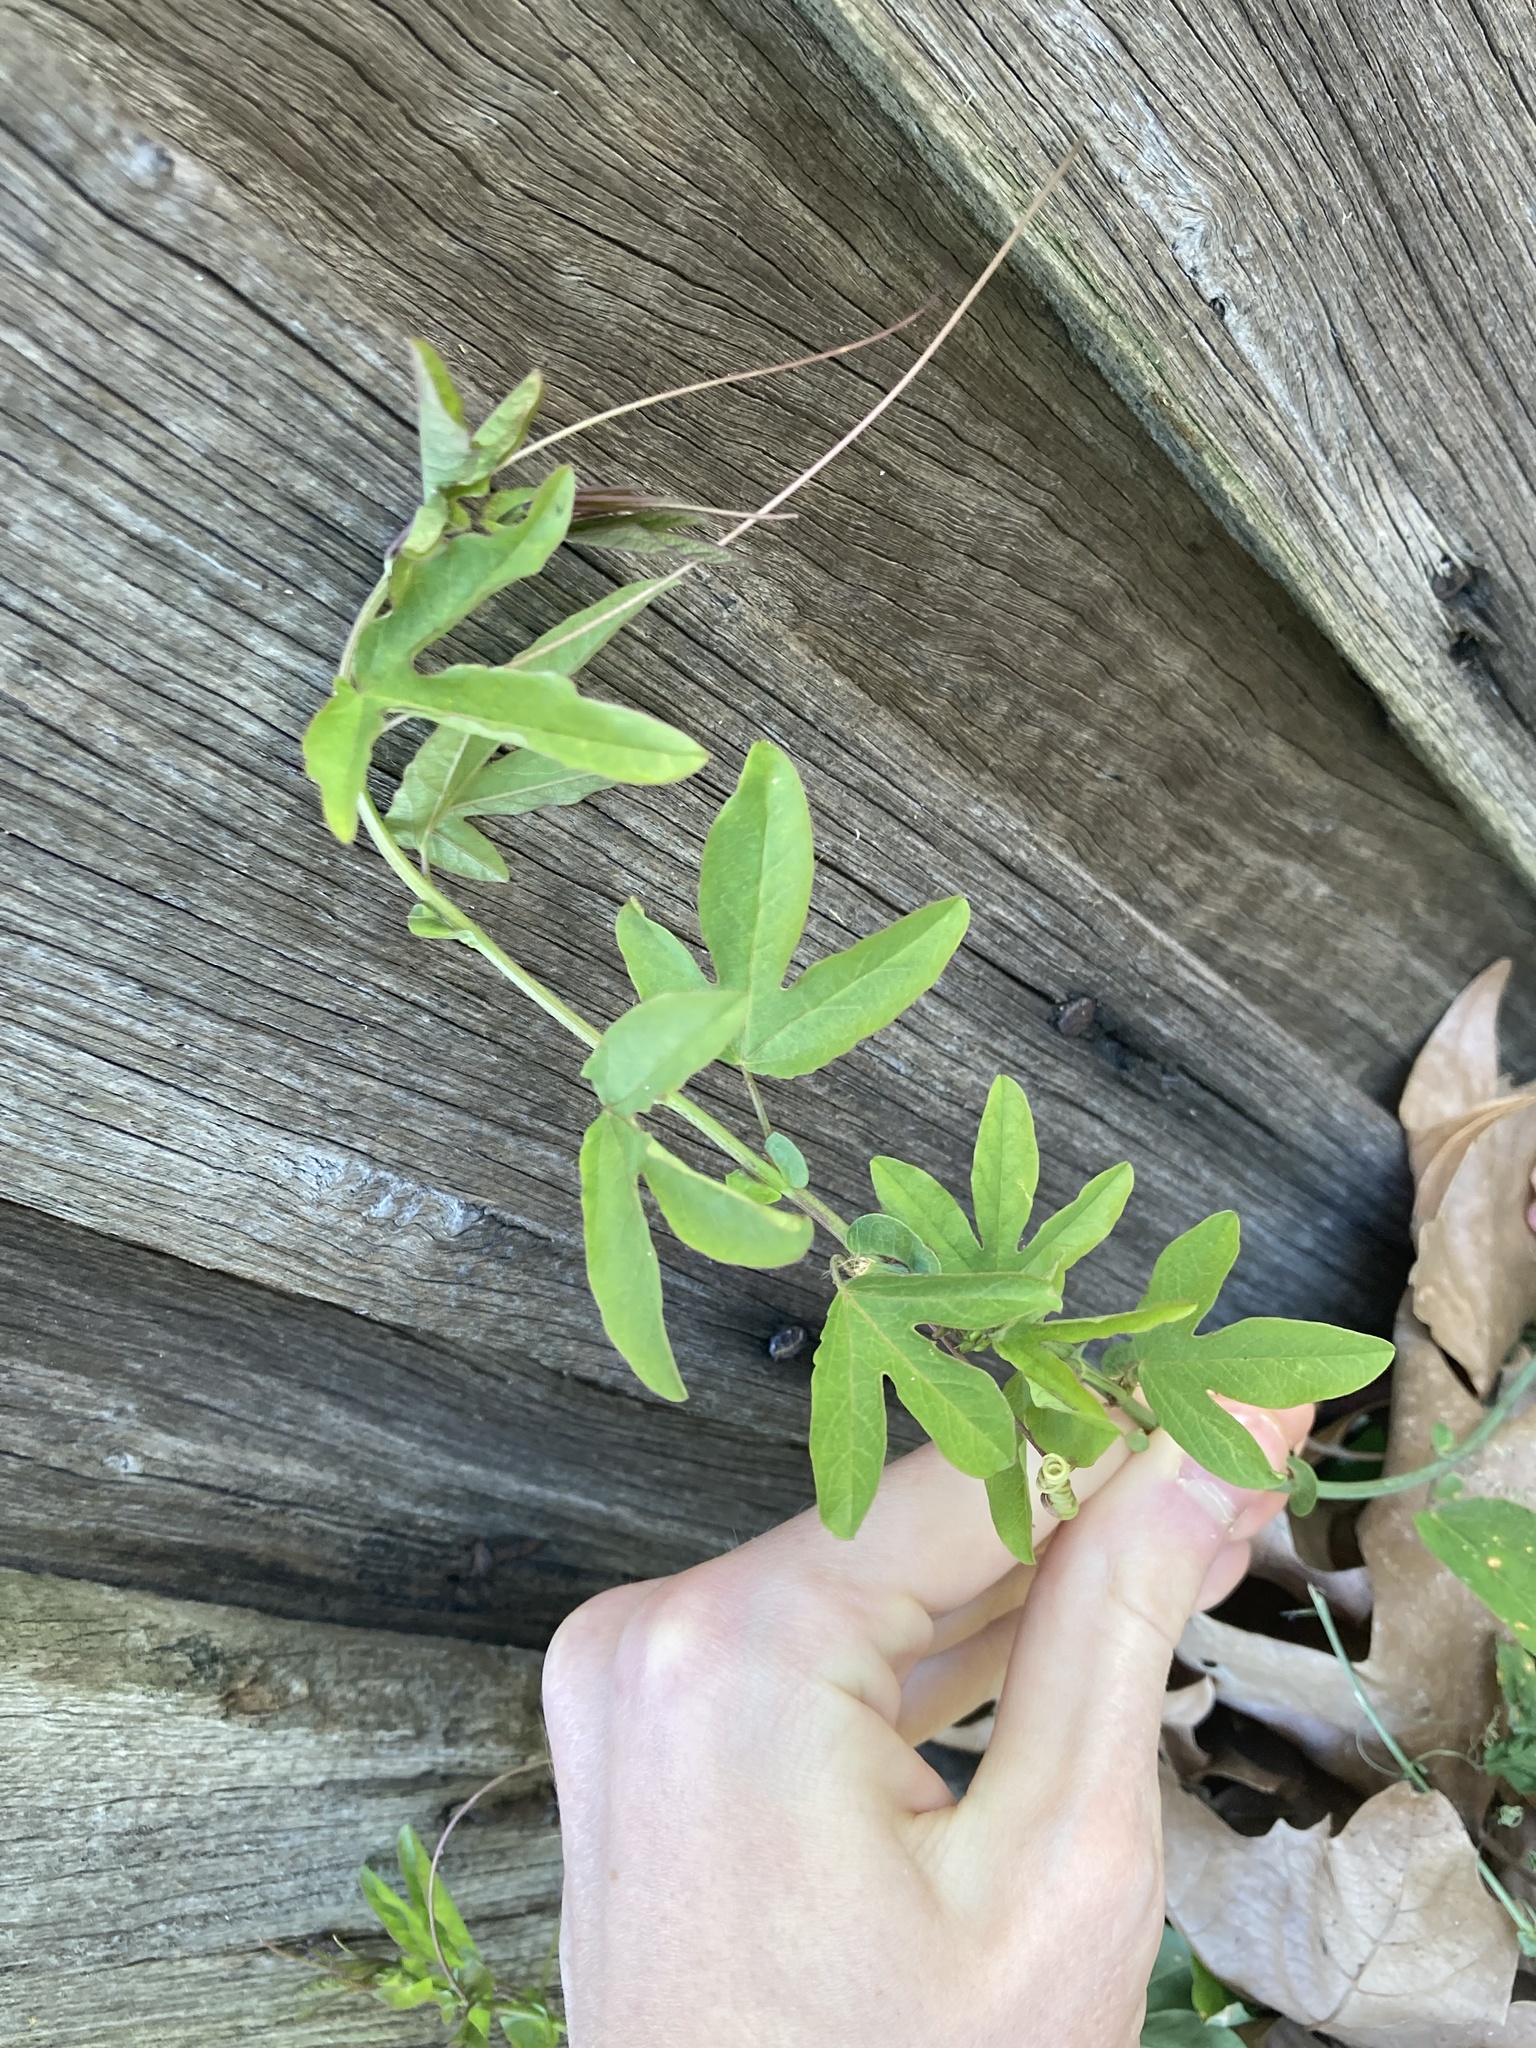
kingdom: Plantae
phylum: Tracheophyta
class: Magnoliopsida
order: Malpighiales
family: Passifloraceae
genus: Passiflora
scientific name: Passiflora caerulea
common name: Blue passionflower
